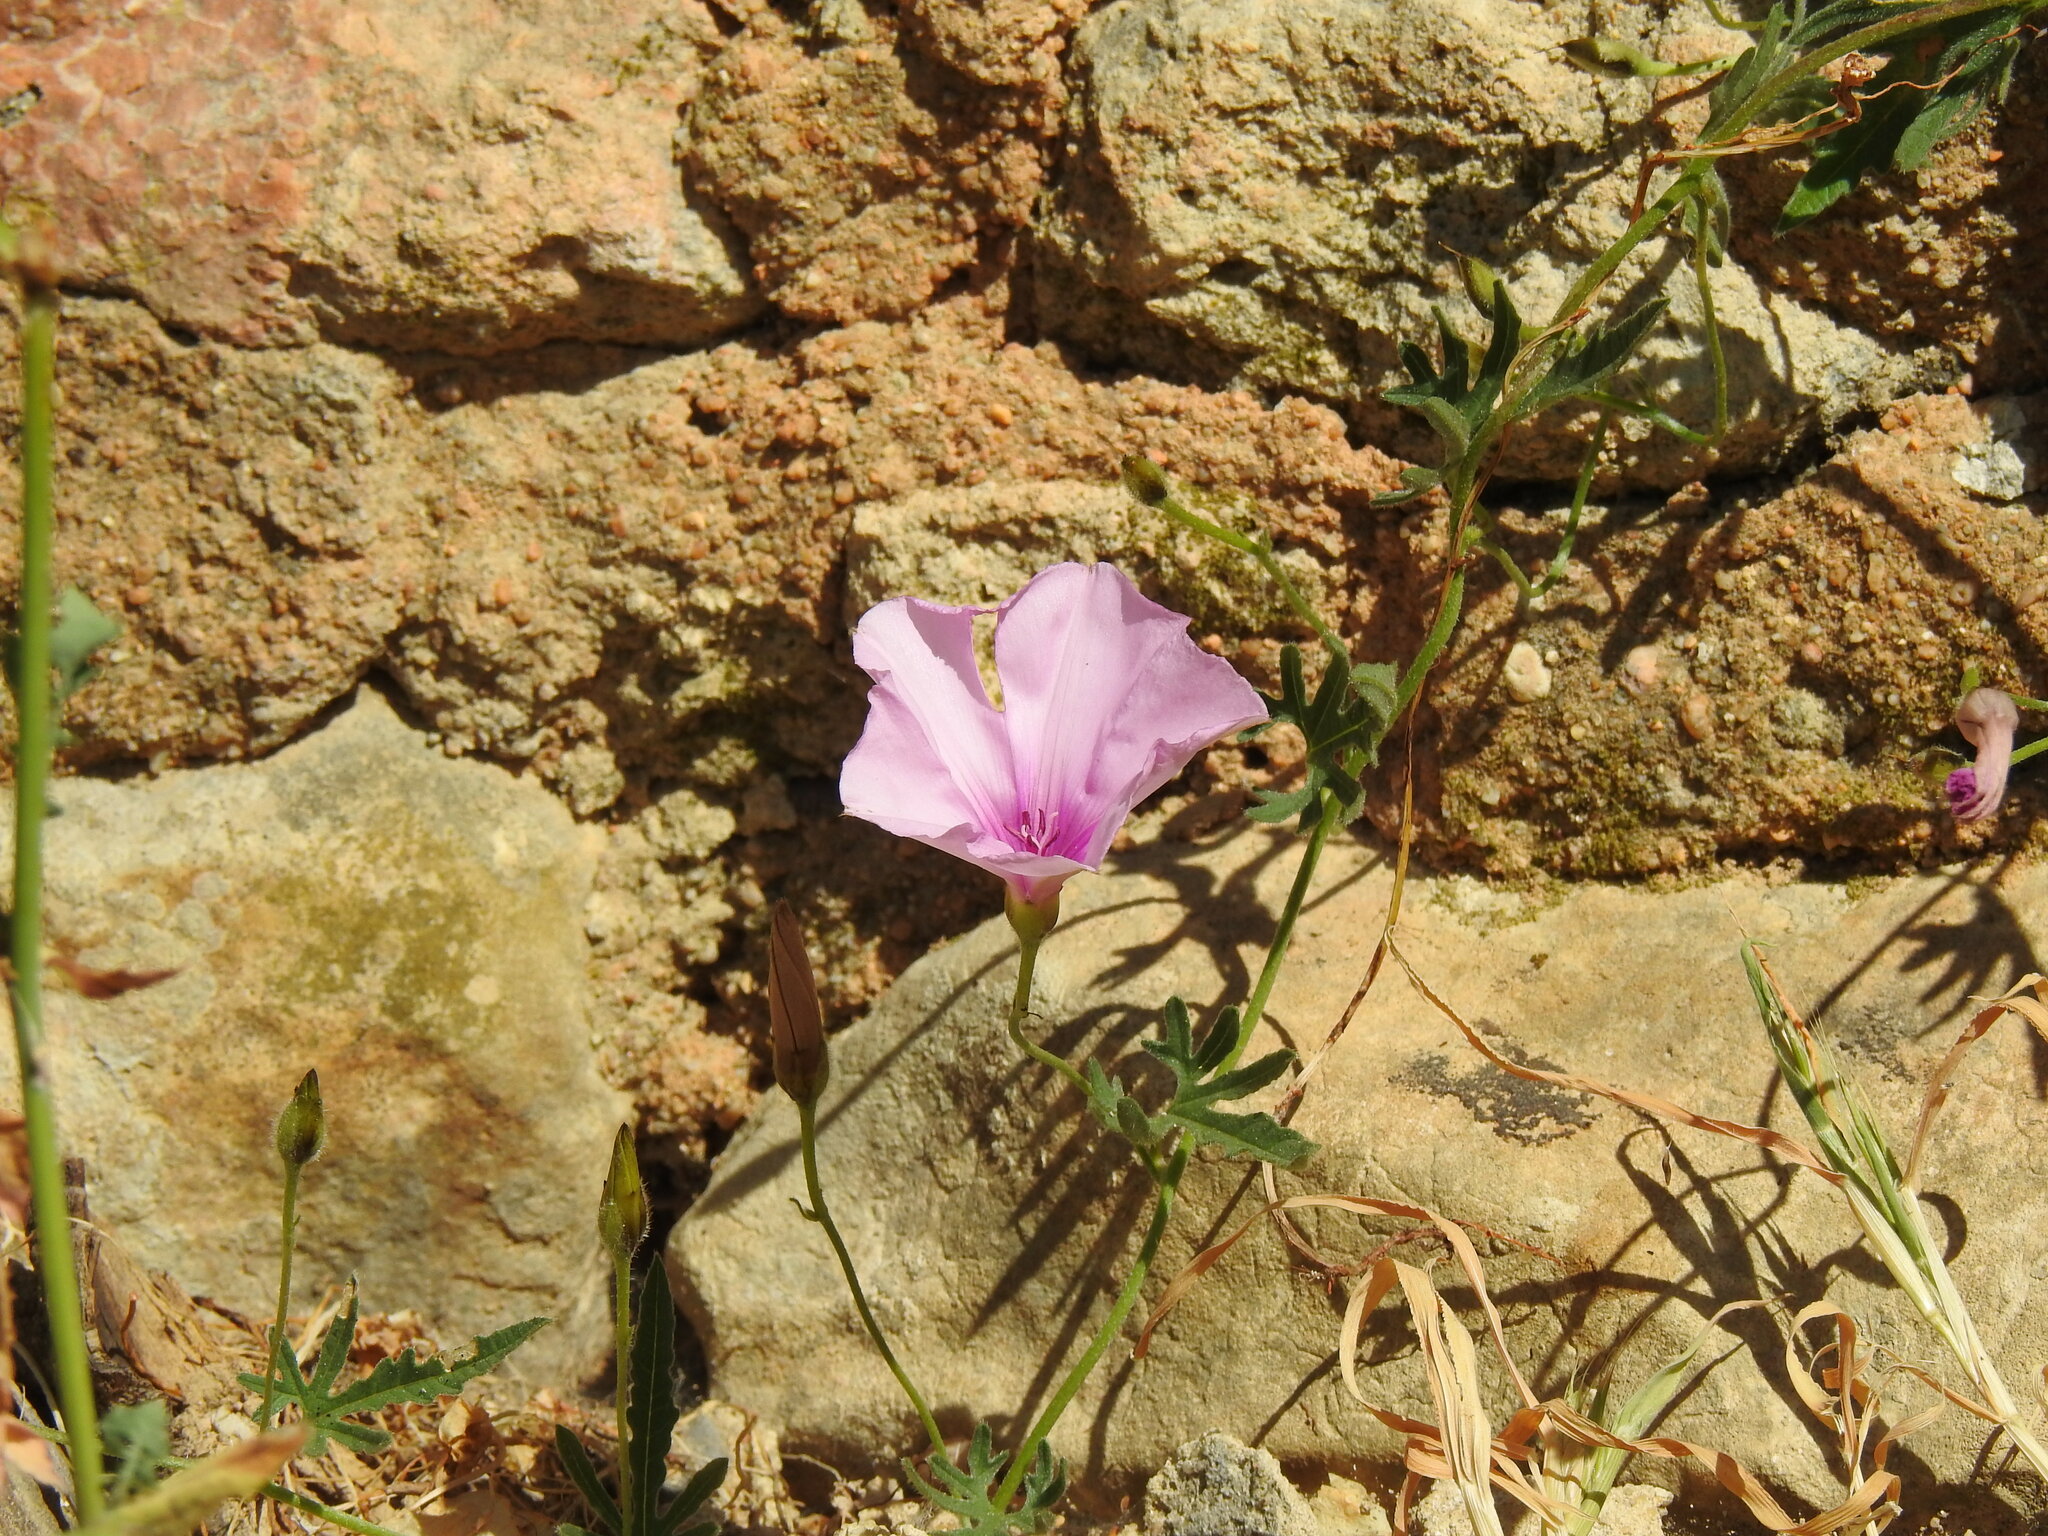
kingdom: Plantae
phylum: Tracheophyta
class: Magnoliopsida
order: Solanales
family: Convolvulaceae
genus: Convolvulus
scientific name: Convolvulus althaeoides
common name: Mallow bindweed
